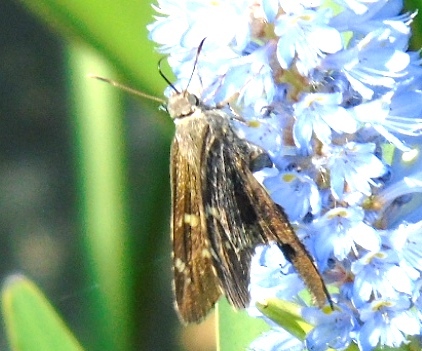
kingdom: Animalia
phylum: Arthropoda
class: Insecta
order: Lepidoptera
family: Hesperiidae
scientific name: Hesperiidae
